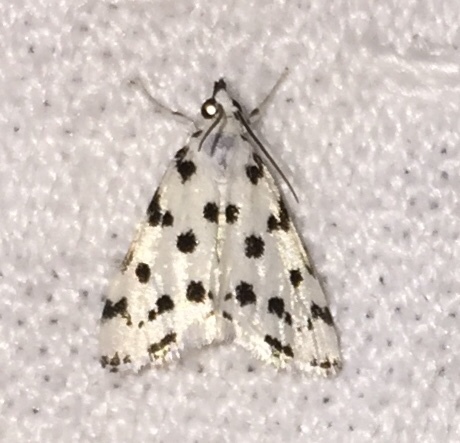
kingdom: Animalia
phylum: Arthropoda
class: Insecta
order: Lepidoptera
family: Crambidae
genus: Eustixia
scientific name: Eustixia pupula
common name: American cabbage pearl
